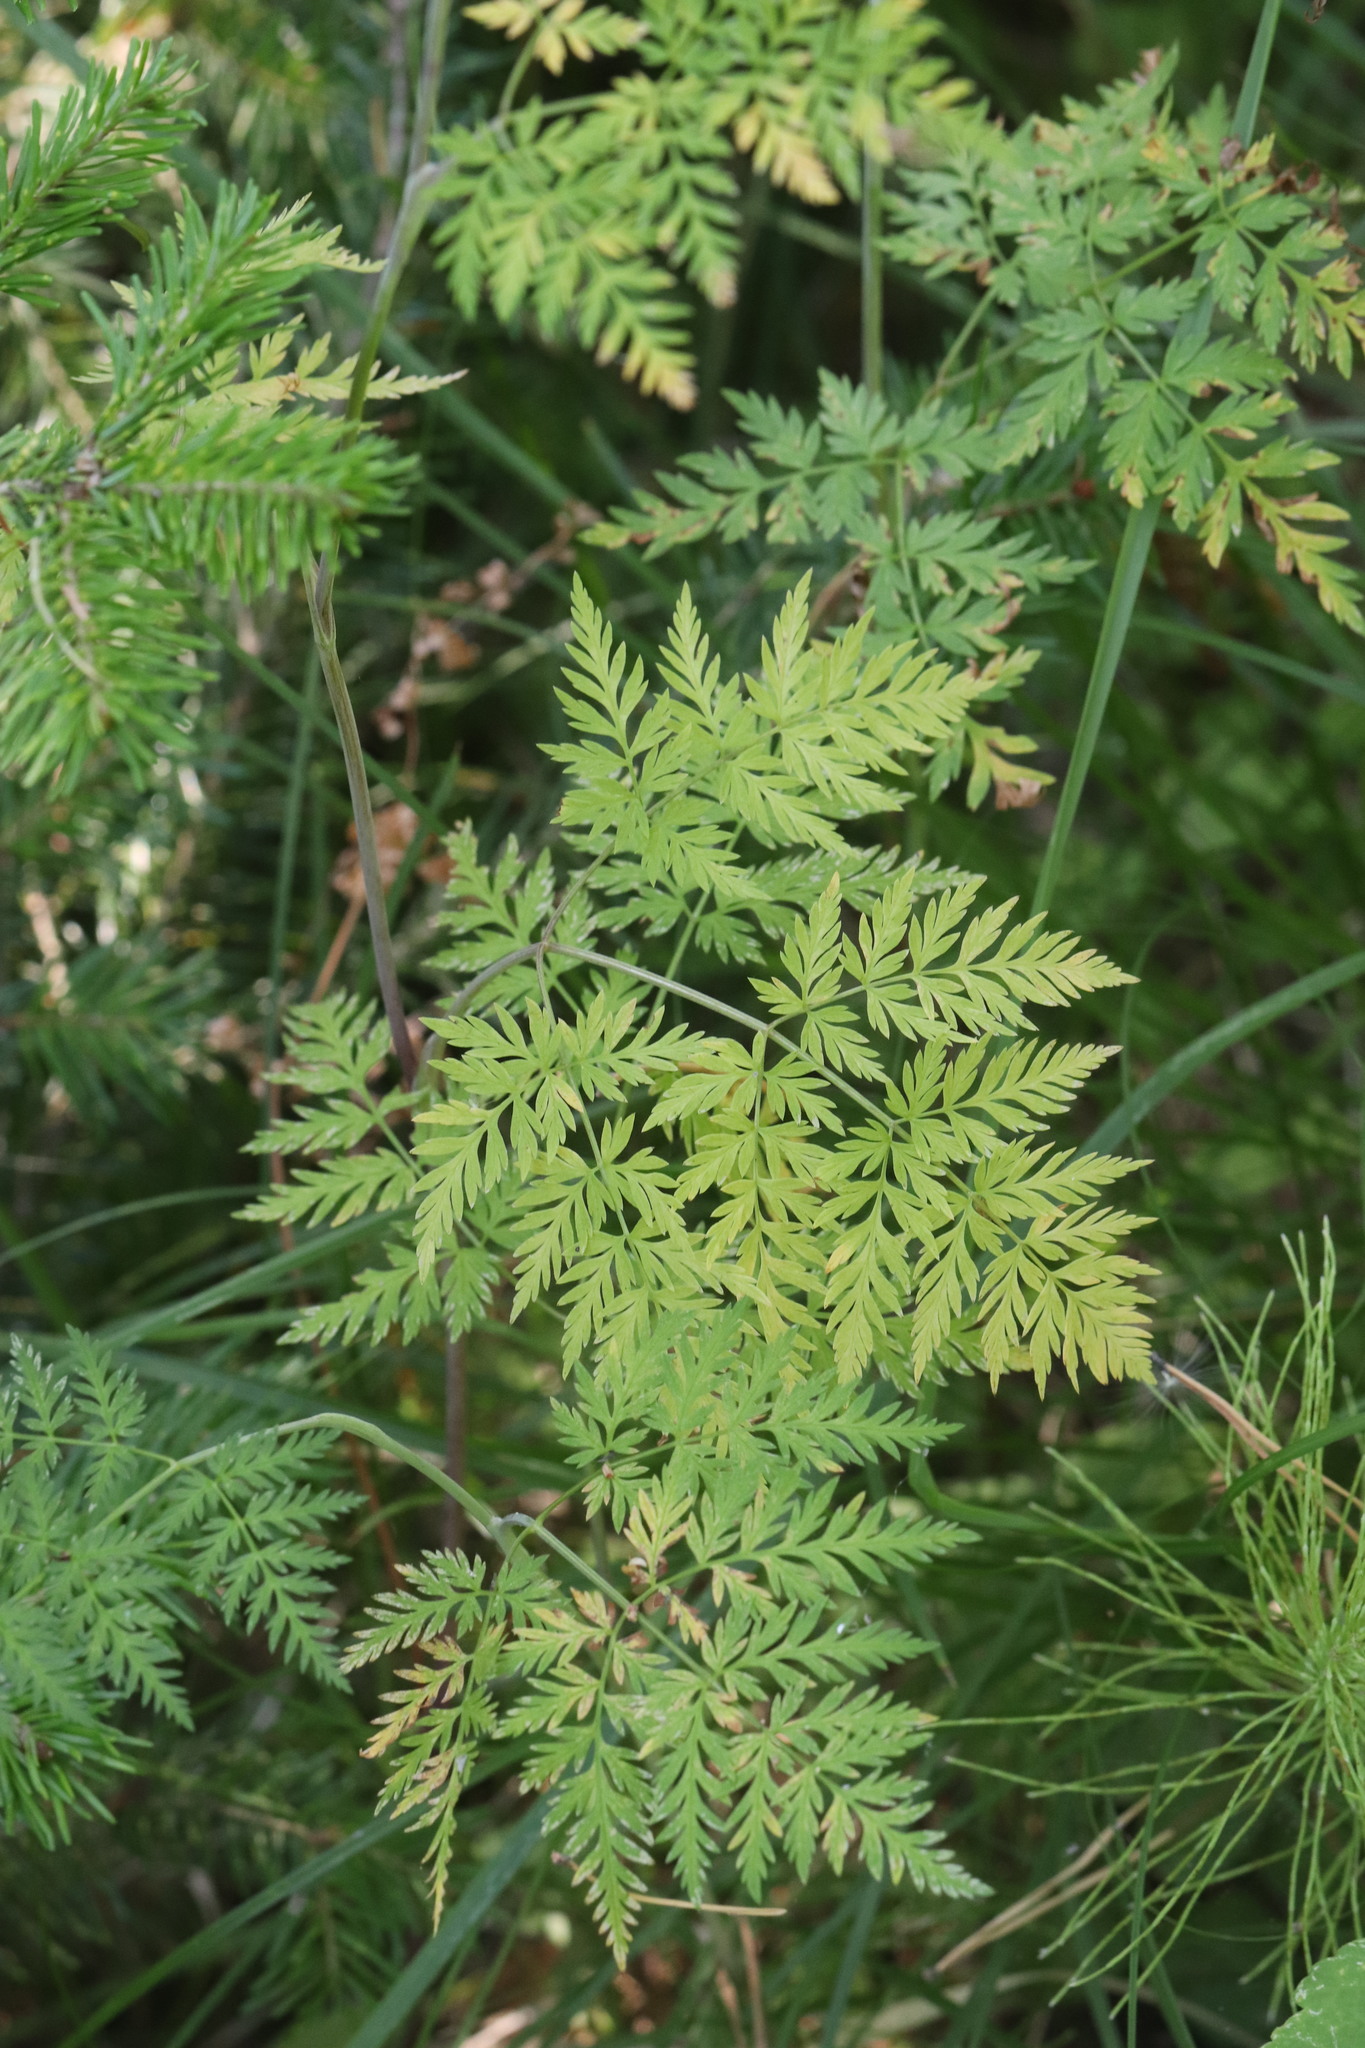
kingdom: Plantae
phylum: Tracheophyta
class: Magnoliopsida
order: Apiales
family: Apiaceae
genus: Conioselinum
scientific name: Conioselinum tataricum
